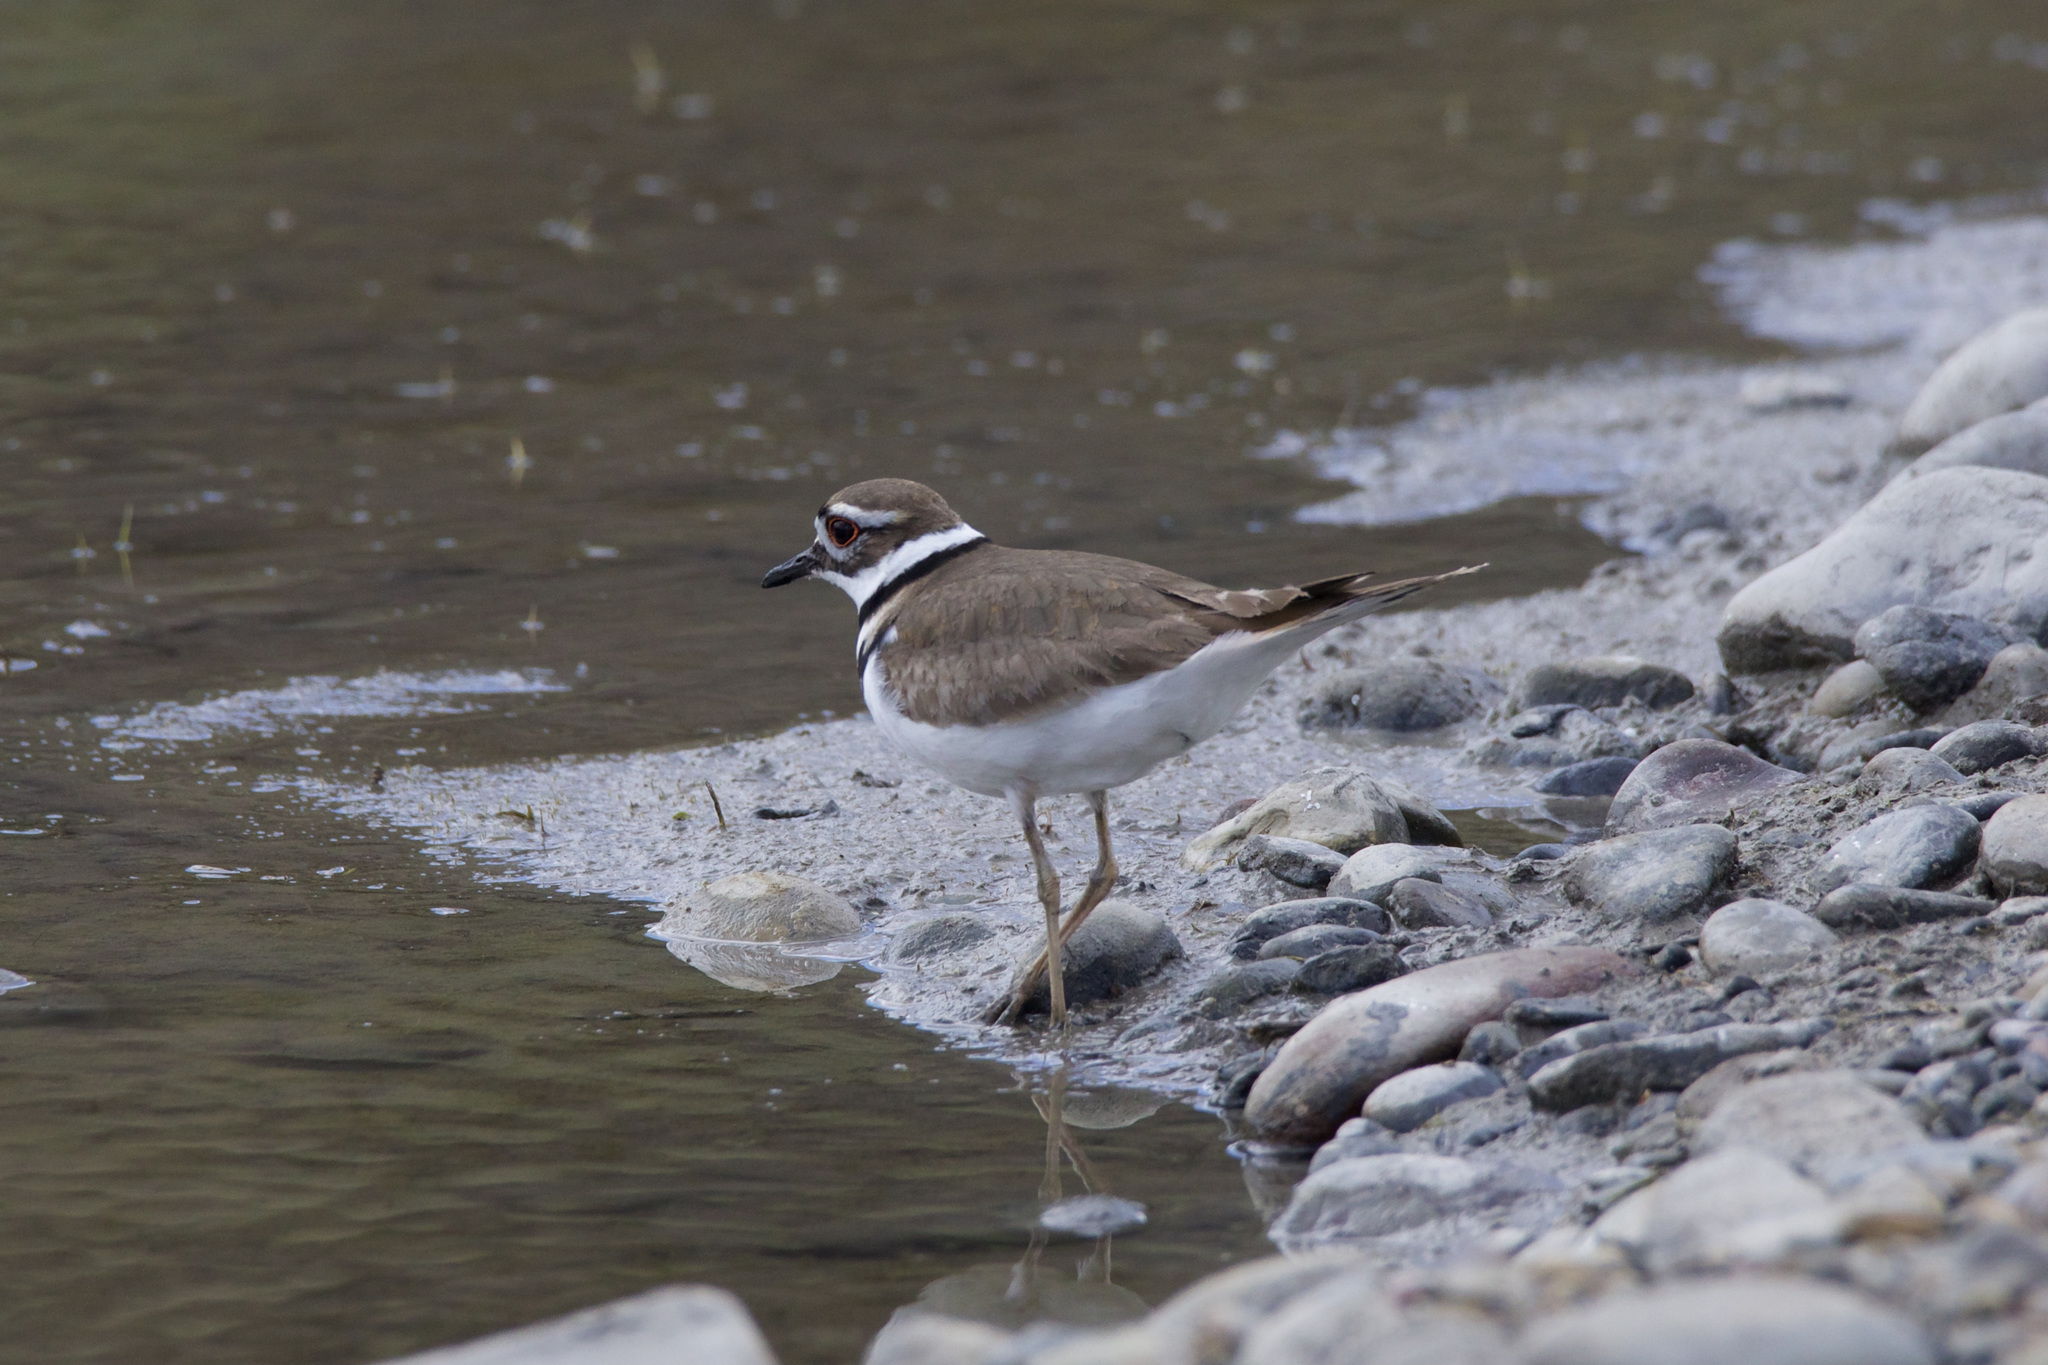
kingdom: Animalia
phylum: Chordata
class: Aves
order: Charadriiformes
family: Charadriidae
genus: Charadrius
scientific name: Charadrius vociferus
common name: Killdeer
